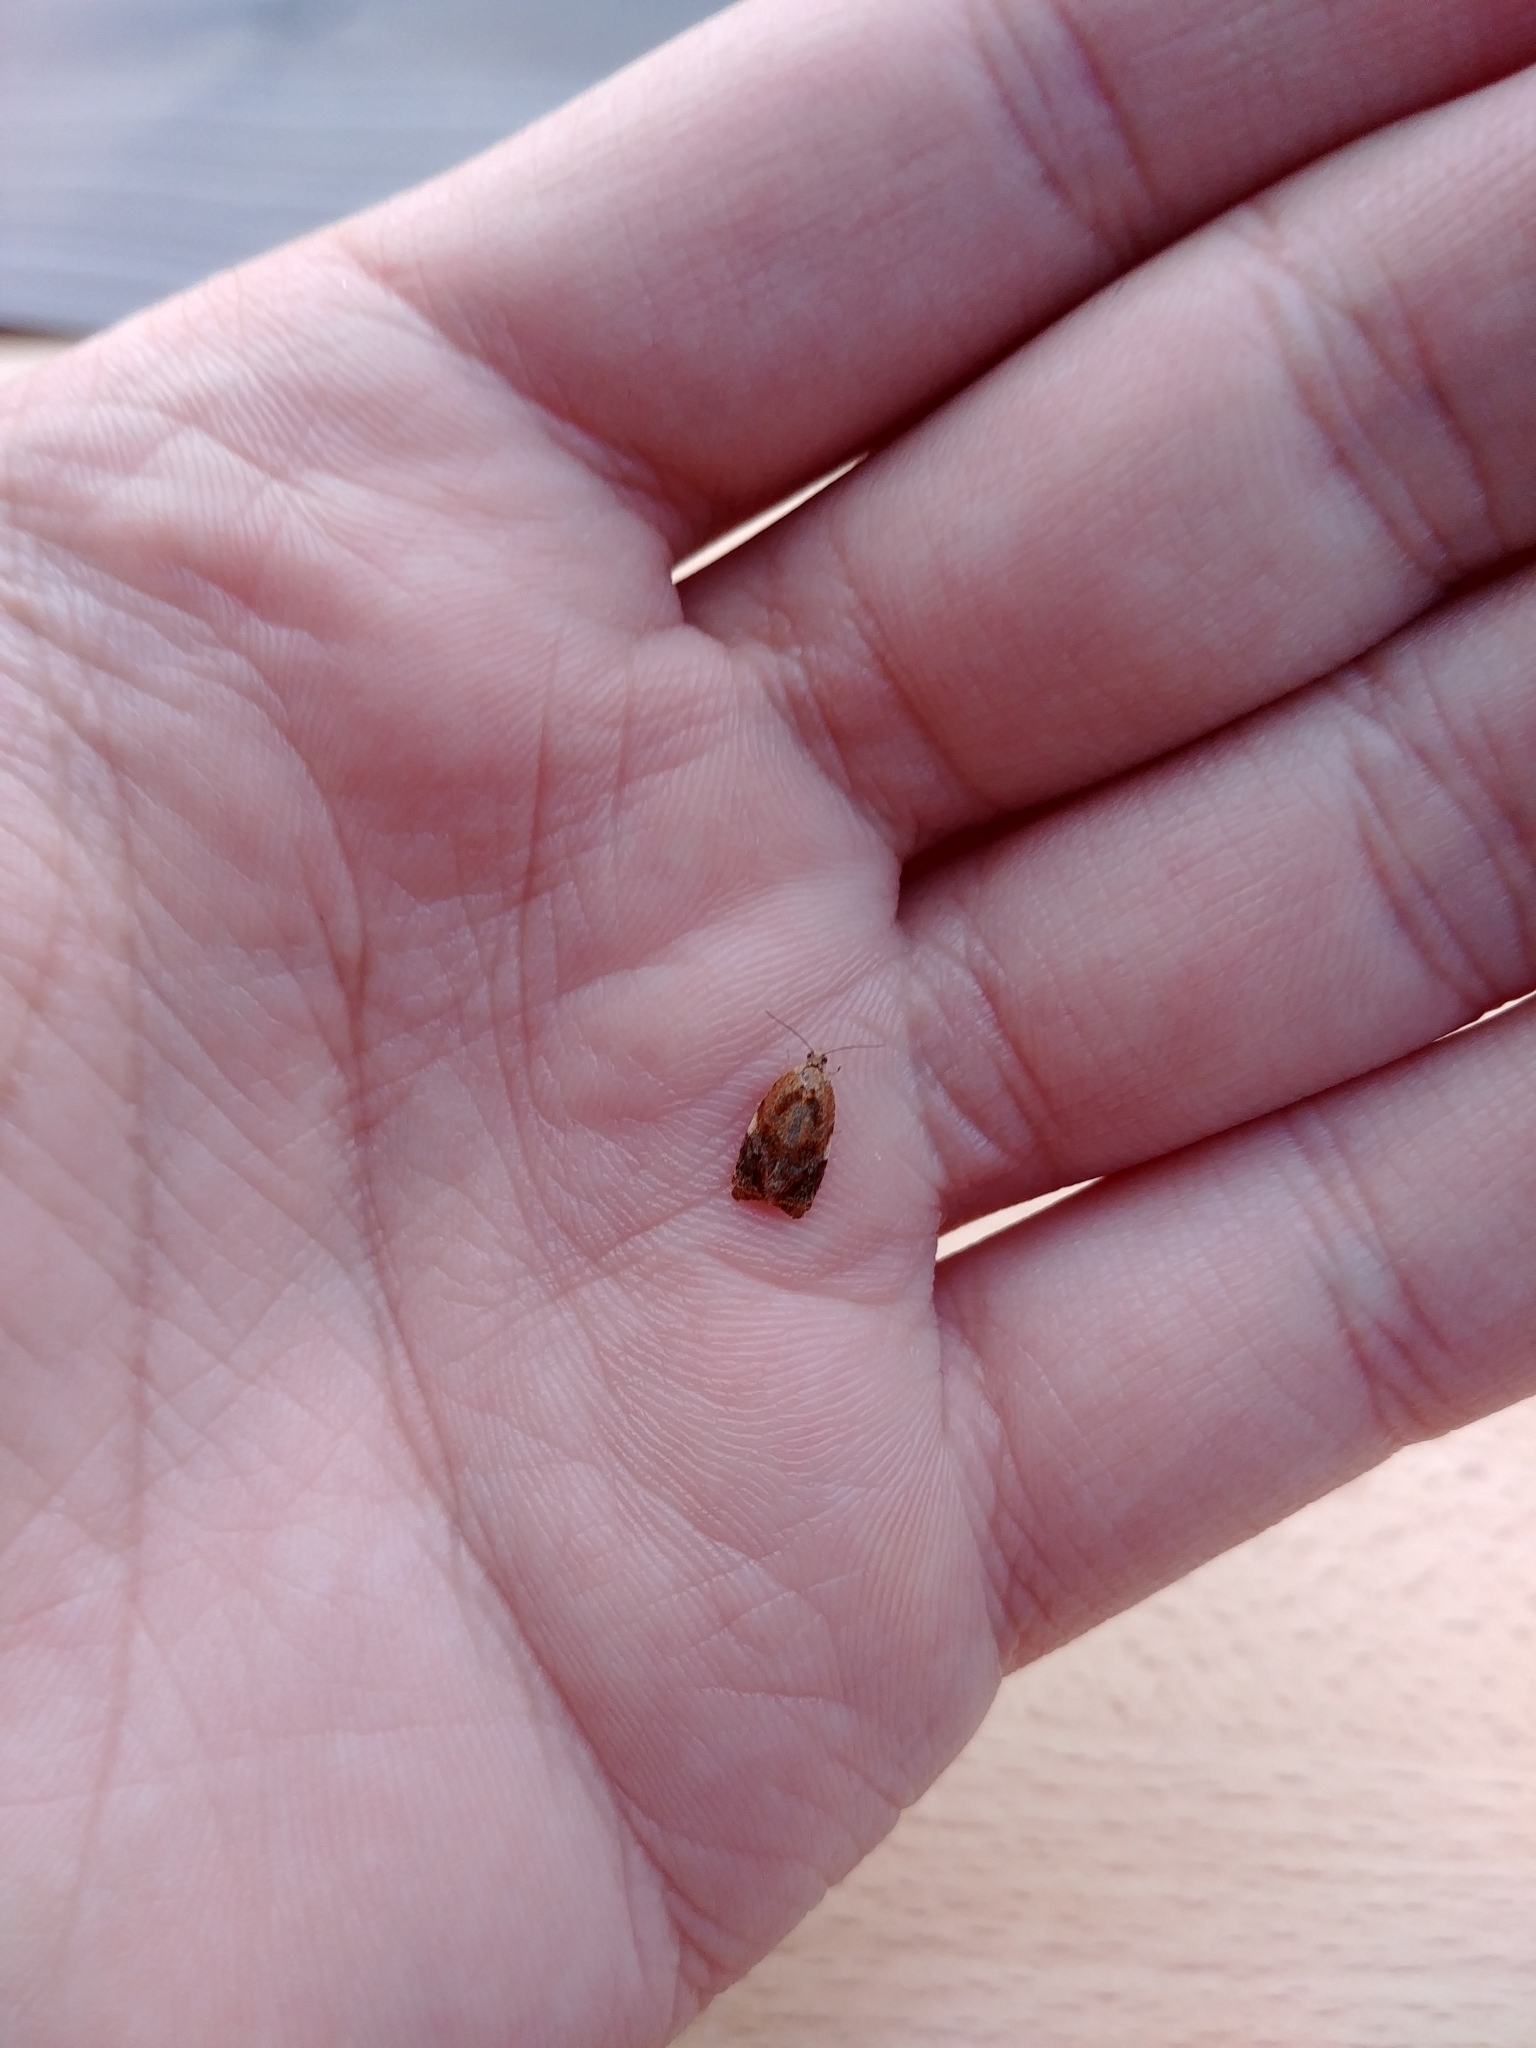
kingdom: Animalia
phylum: Arthropoda
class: Insecta
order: Lepidoptera
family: Tortricidae
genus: Ditula
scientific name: Ditula angustiorana
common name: Red-barred tortrix
